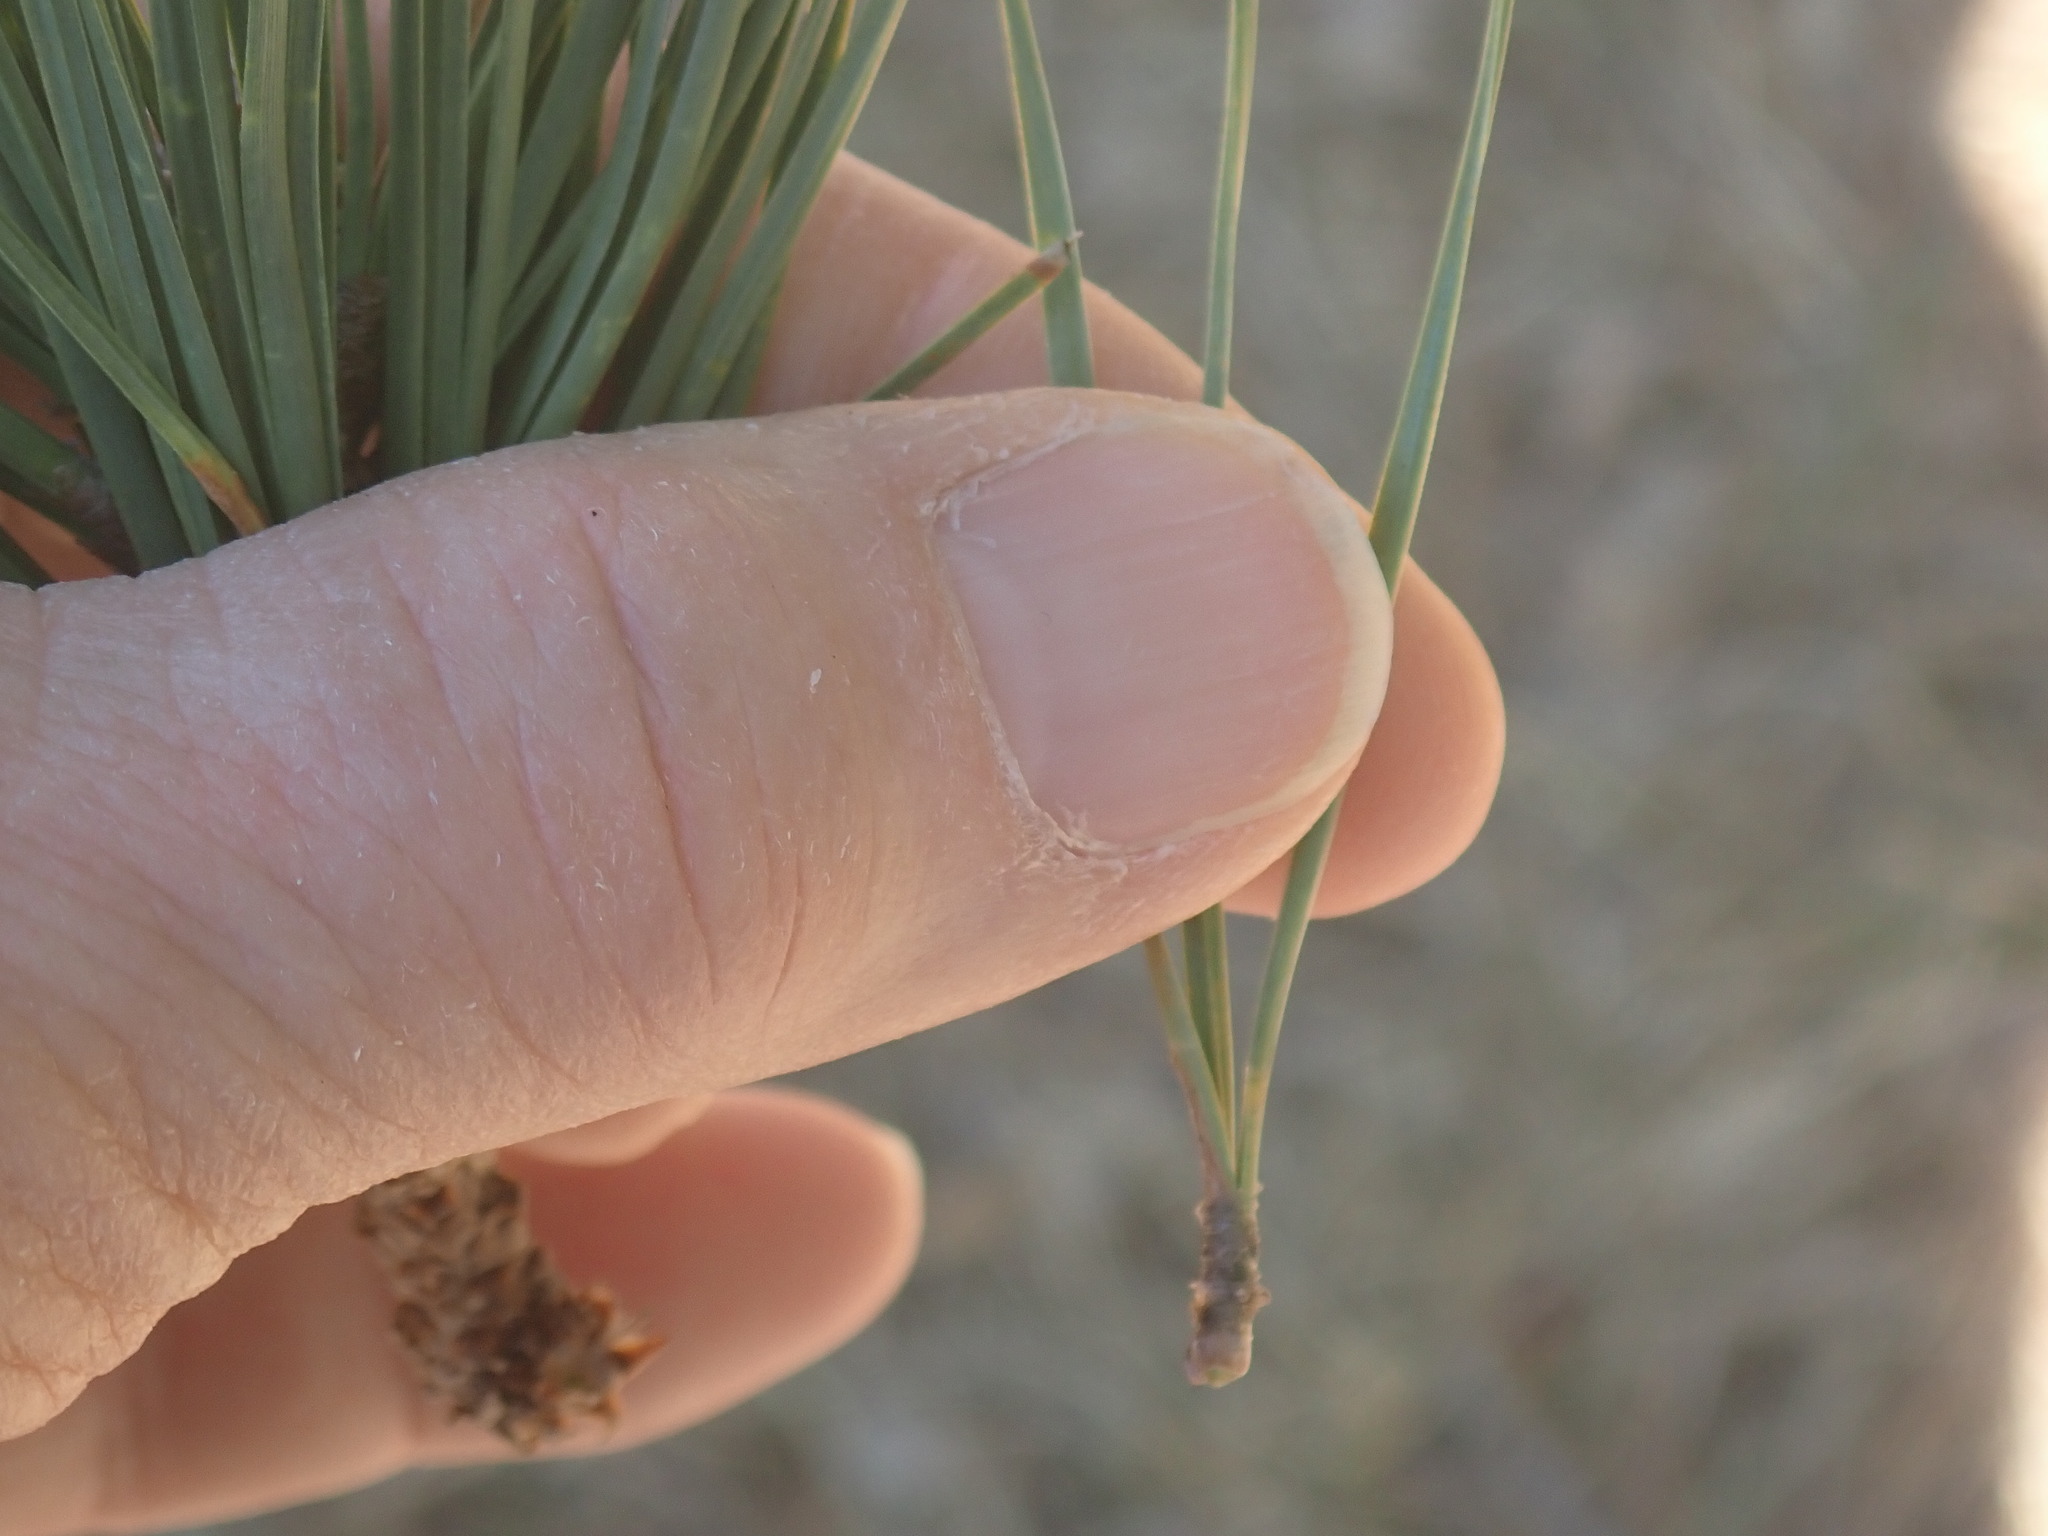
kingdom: Plantae
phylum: Tracheophyta
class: Pinopsida
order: Pinales
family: Pinaceae
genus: Pinus
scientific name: Pinus rigida
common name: Pitch pine
